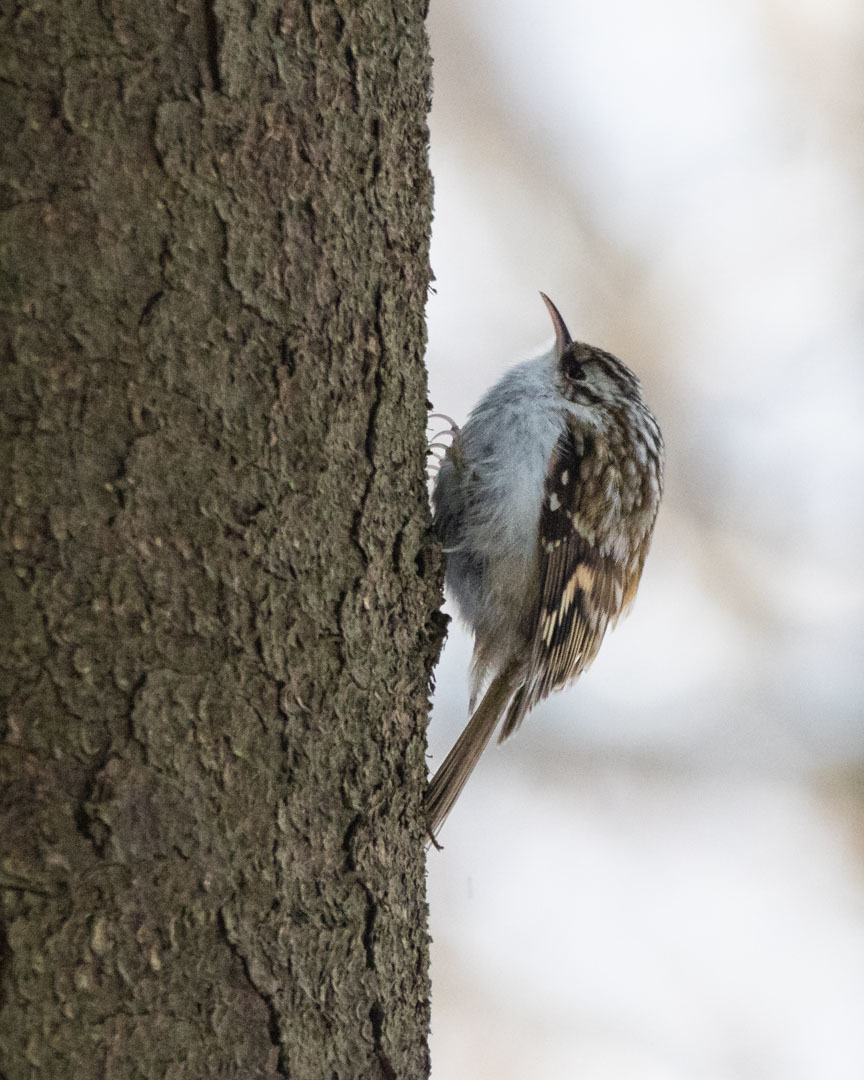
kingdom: Animalia
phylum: Chordata
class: Aves
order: Passeriformes
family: Certhiidae
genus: Certhia
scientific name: Certhia familiaris
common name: Eurasian treecreeper
